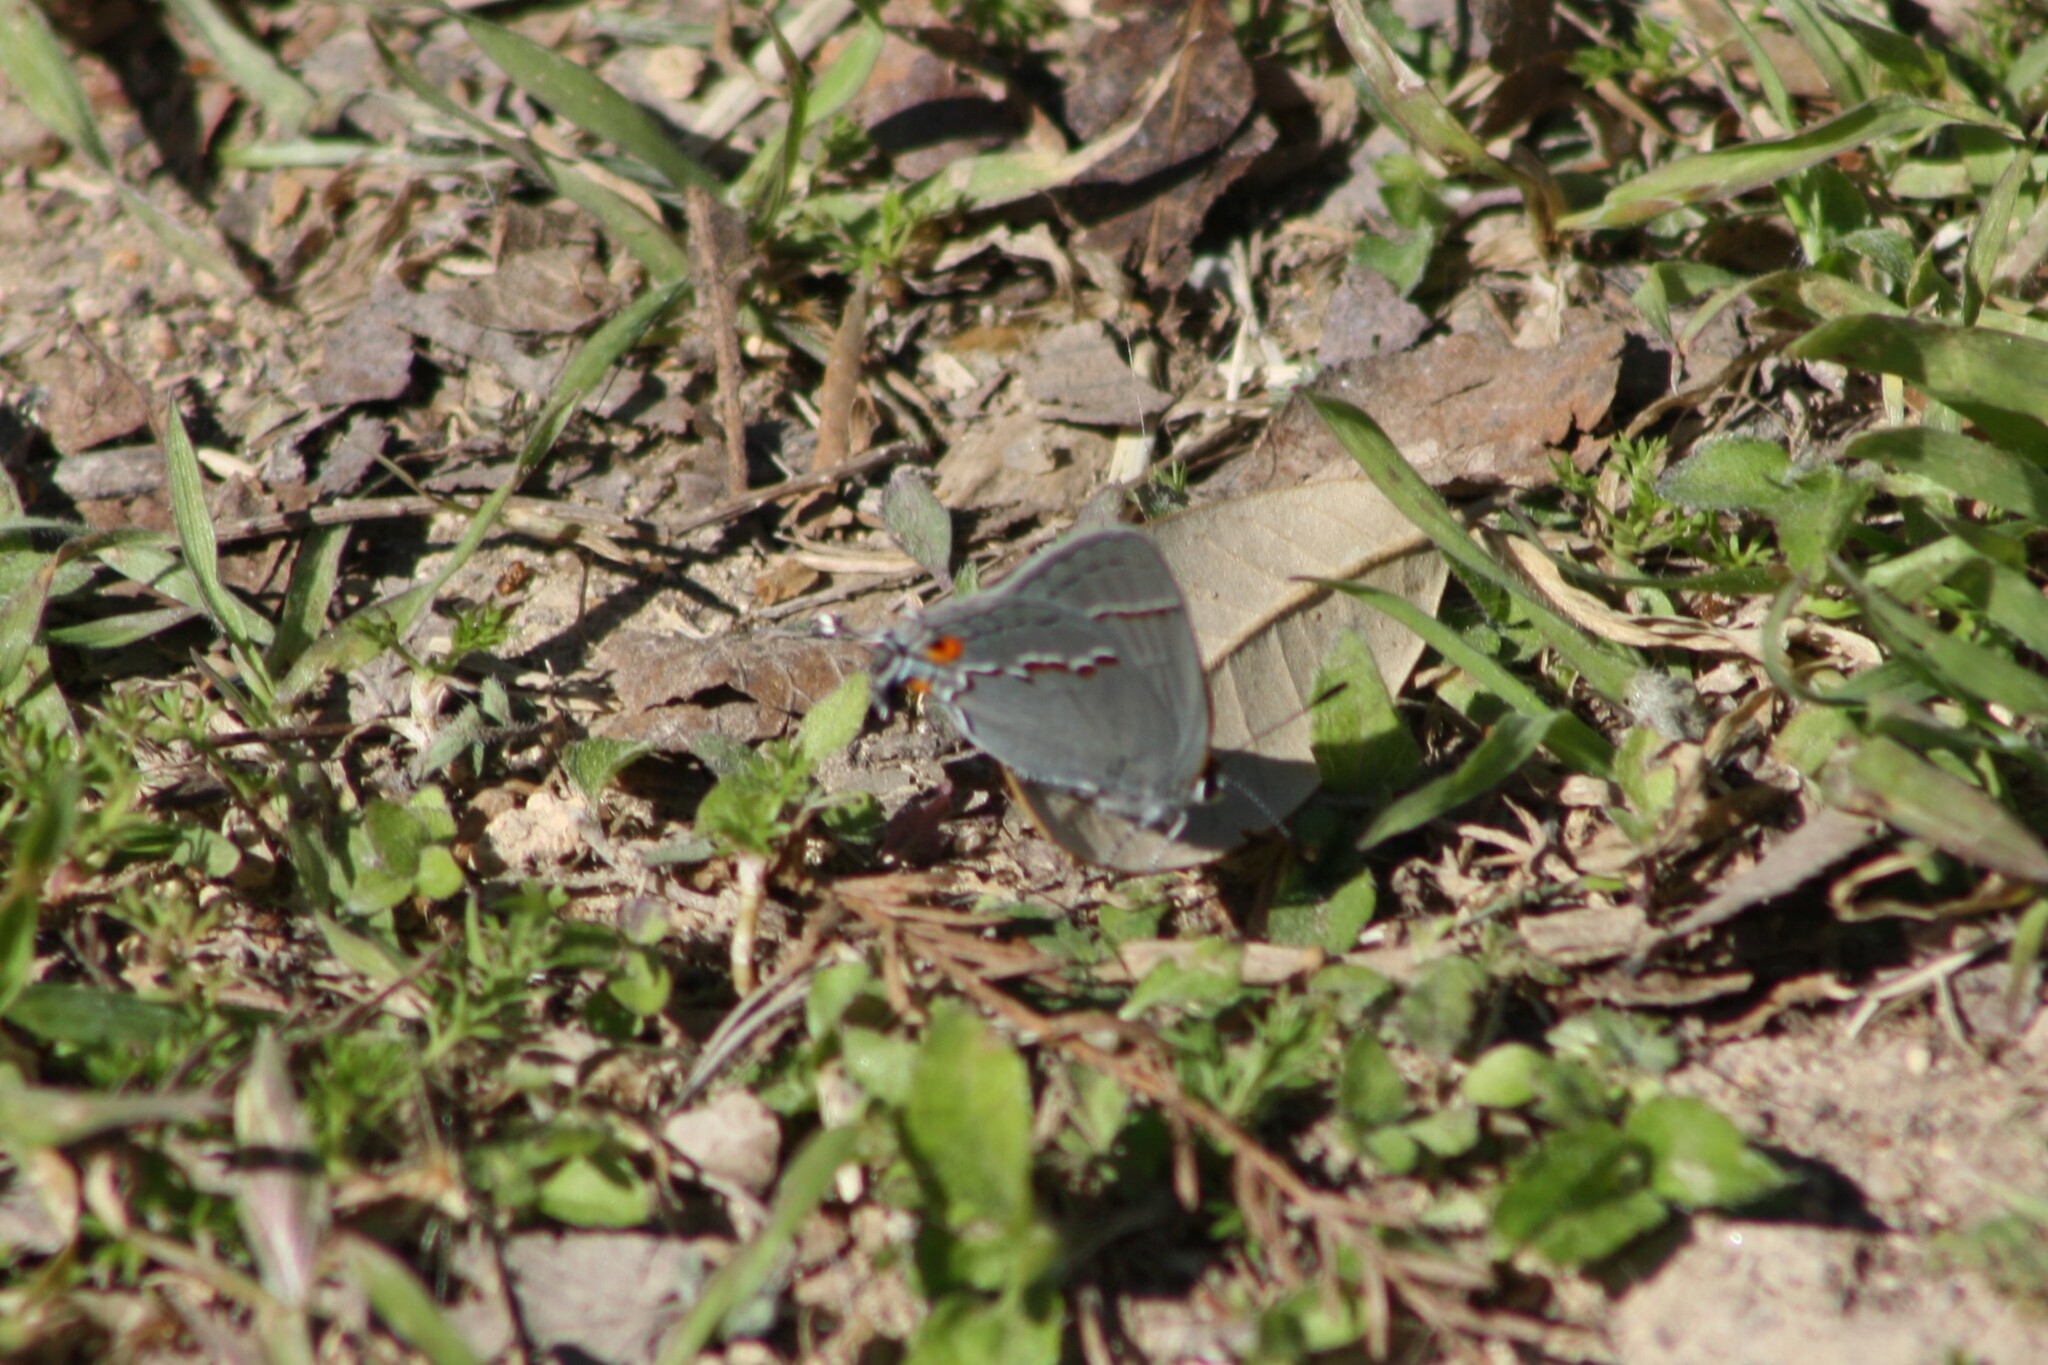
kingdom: Animalia
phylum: Arthropoda
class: Insecta
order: Lepidoptera
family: Lycaenidae
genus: Strymon
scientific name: Strymon melinus
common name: Gray hairstreak
